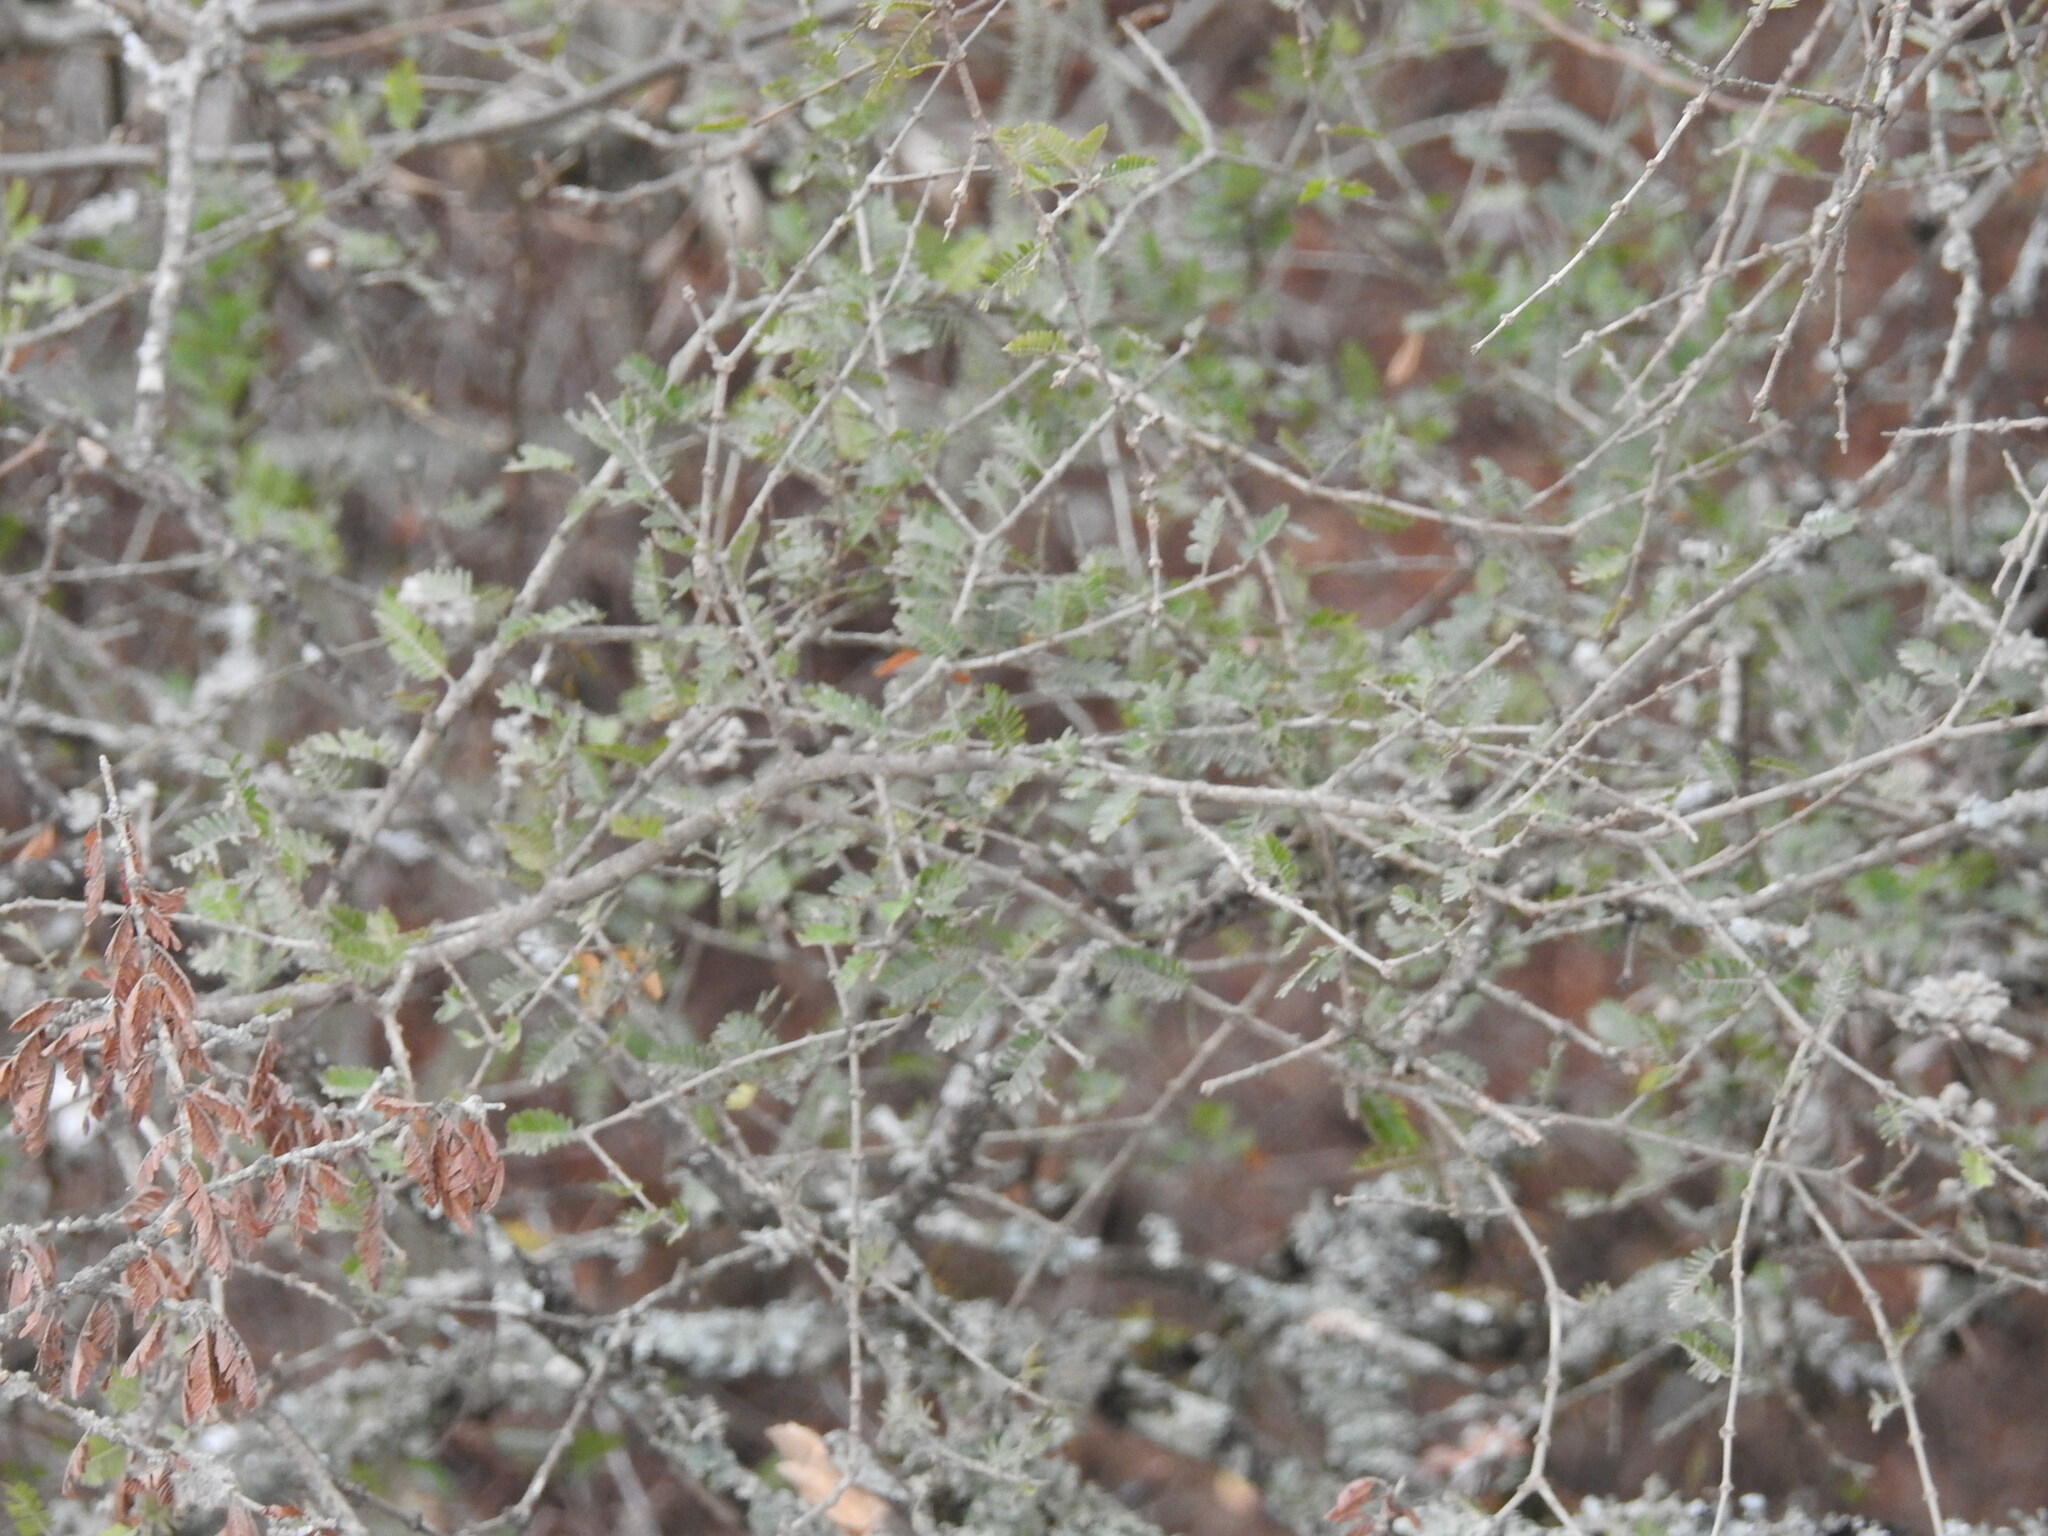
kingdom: Plantae
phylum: Tracheophyta
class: Magnoliopsida
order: Zygophyllales
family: Zygophyllaceae
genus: Porlieria
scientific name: Porlieria microphylla
